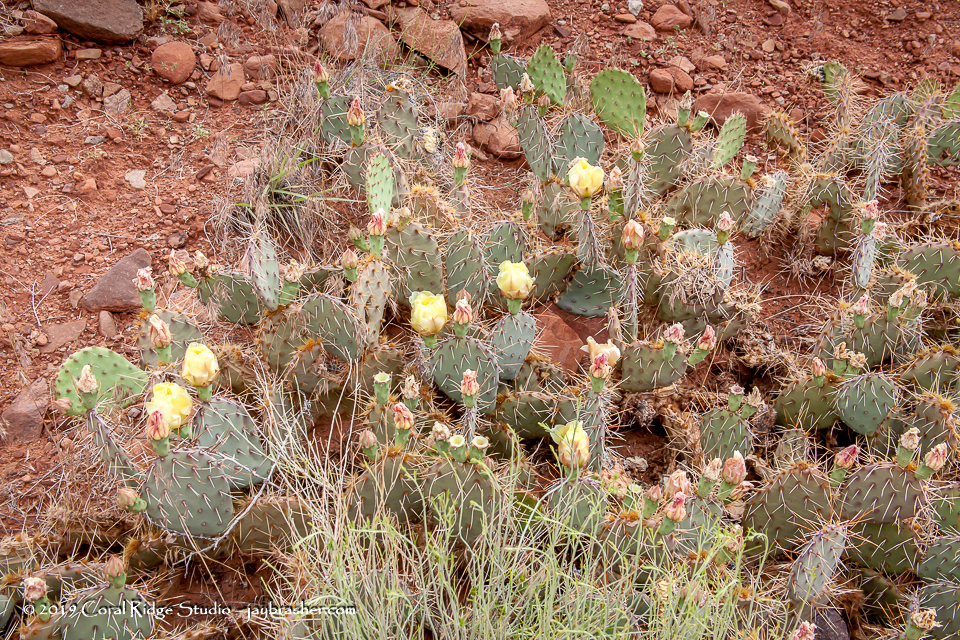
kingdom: Plantae
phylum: Tracheophyta
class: Magnoliopsida
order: Caryophyllales
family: Cactaceae
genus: Opuntia
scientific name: Opuntia phaeacantha
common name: New mexico prickly-pear
